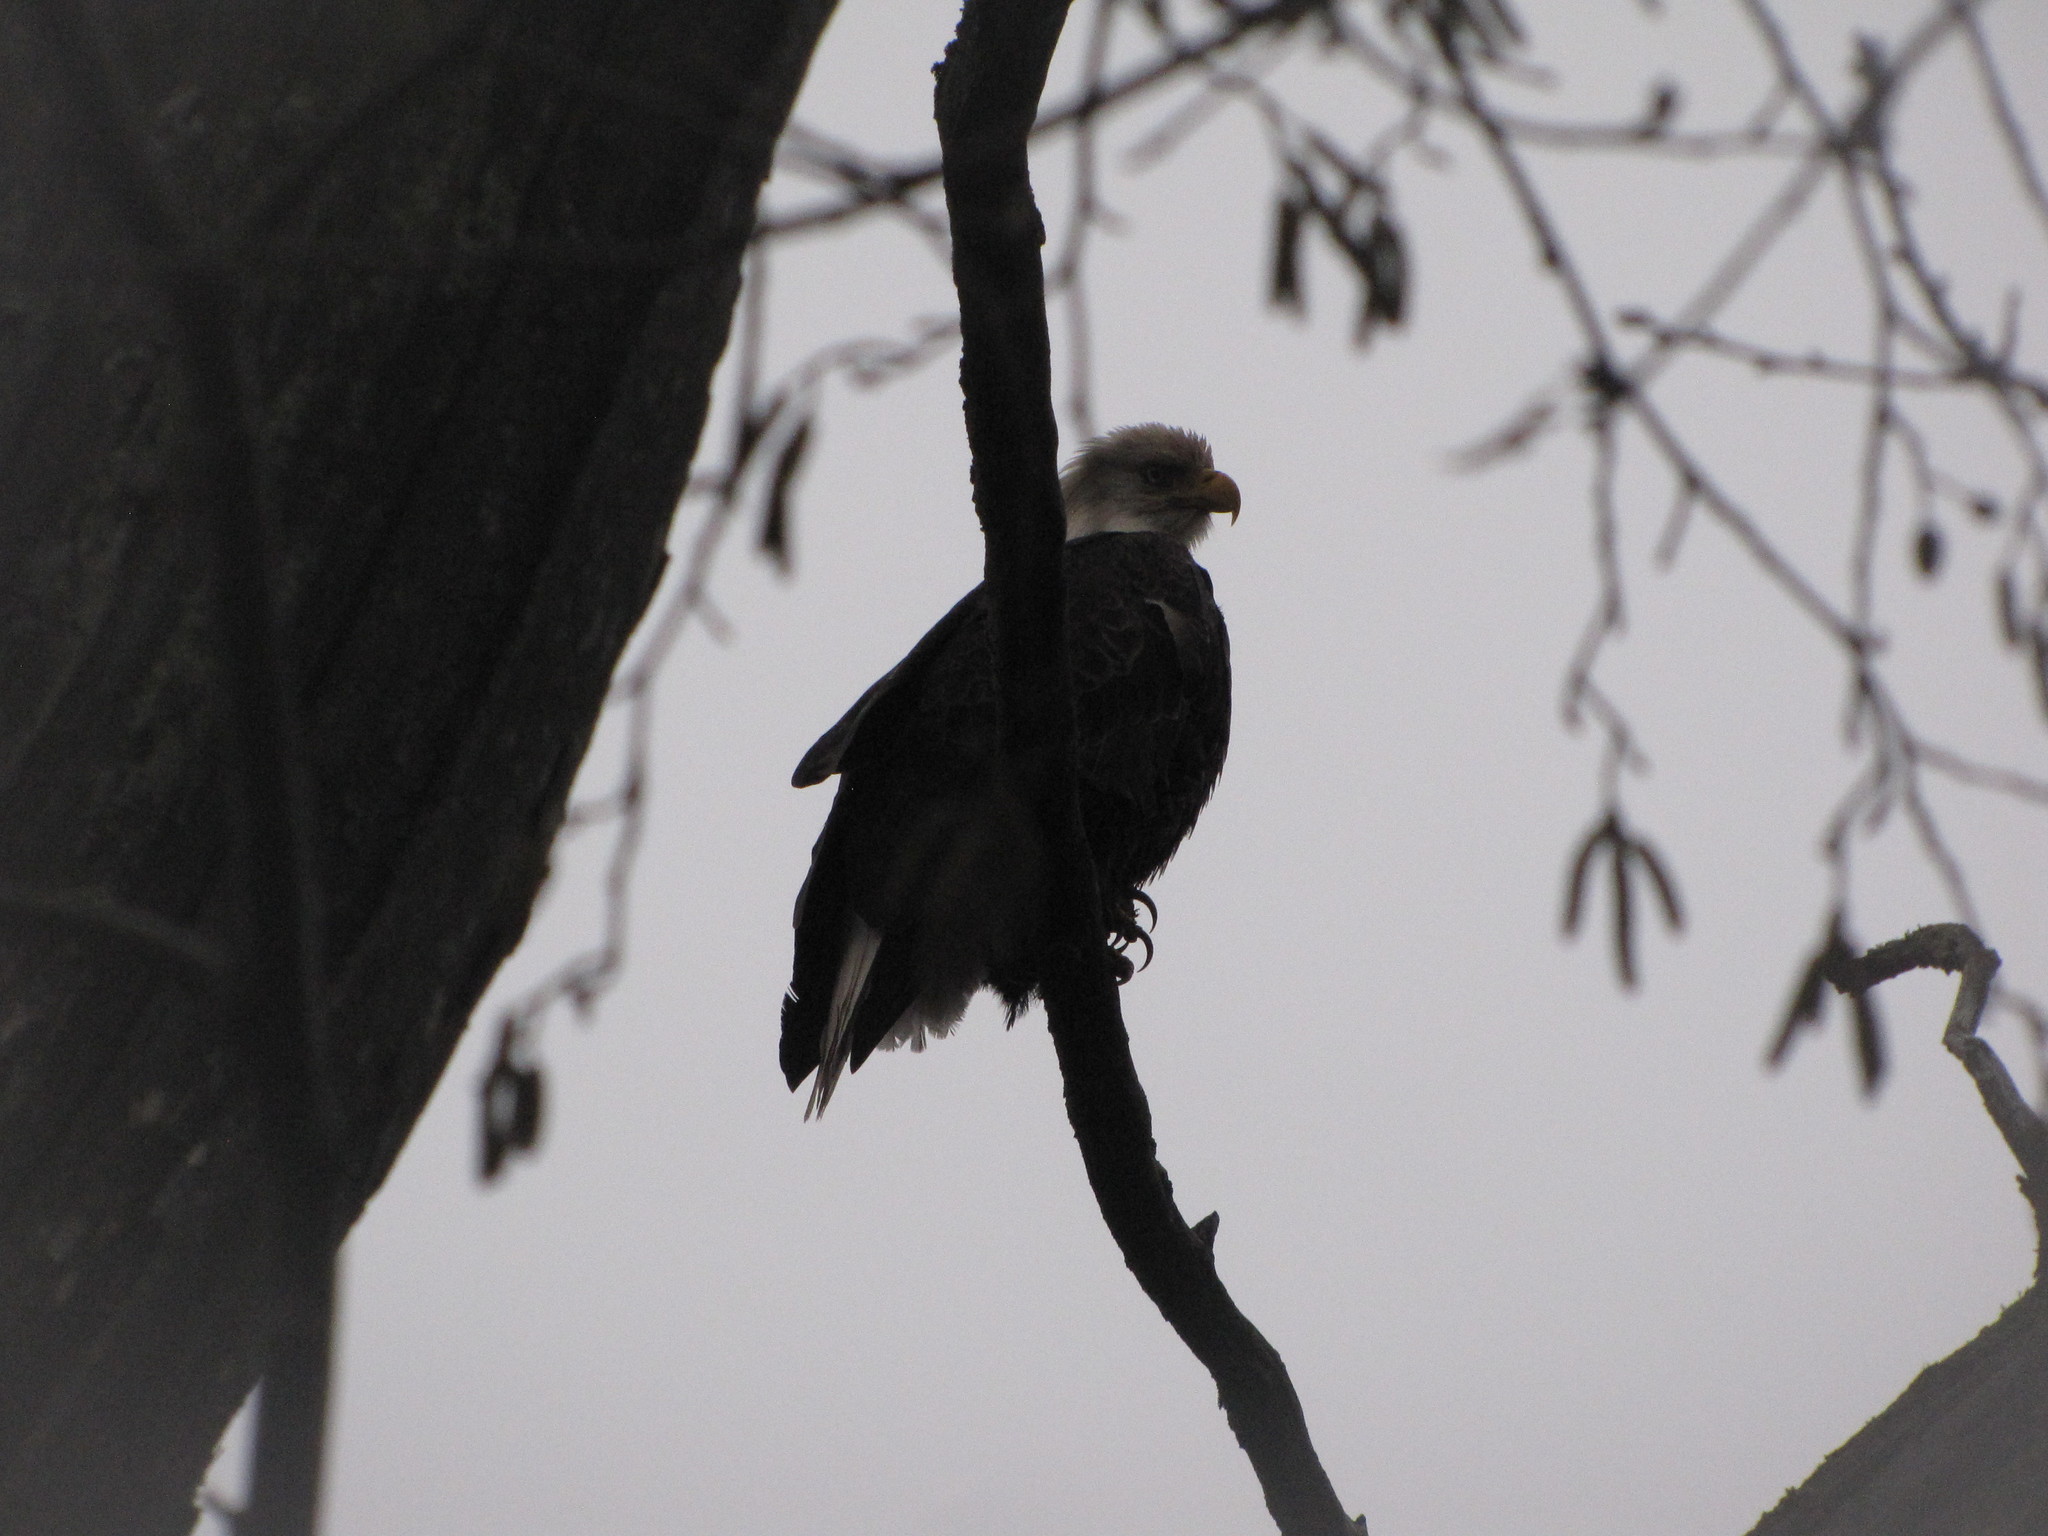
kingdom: Animalia
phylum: Chordata
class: Aves
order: Accipitriformes
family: Accipitridae
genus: Haliaeetus
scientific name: Haliaeetus leucocephalus
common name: Bald eagle
